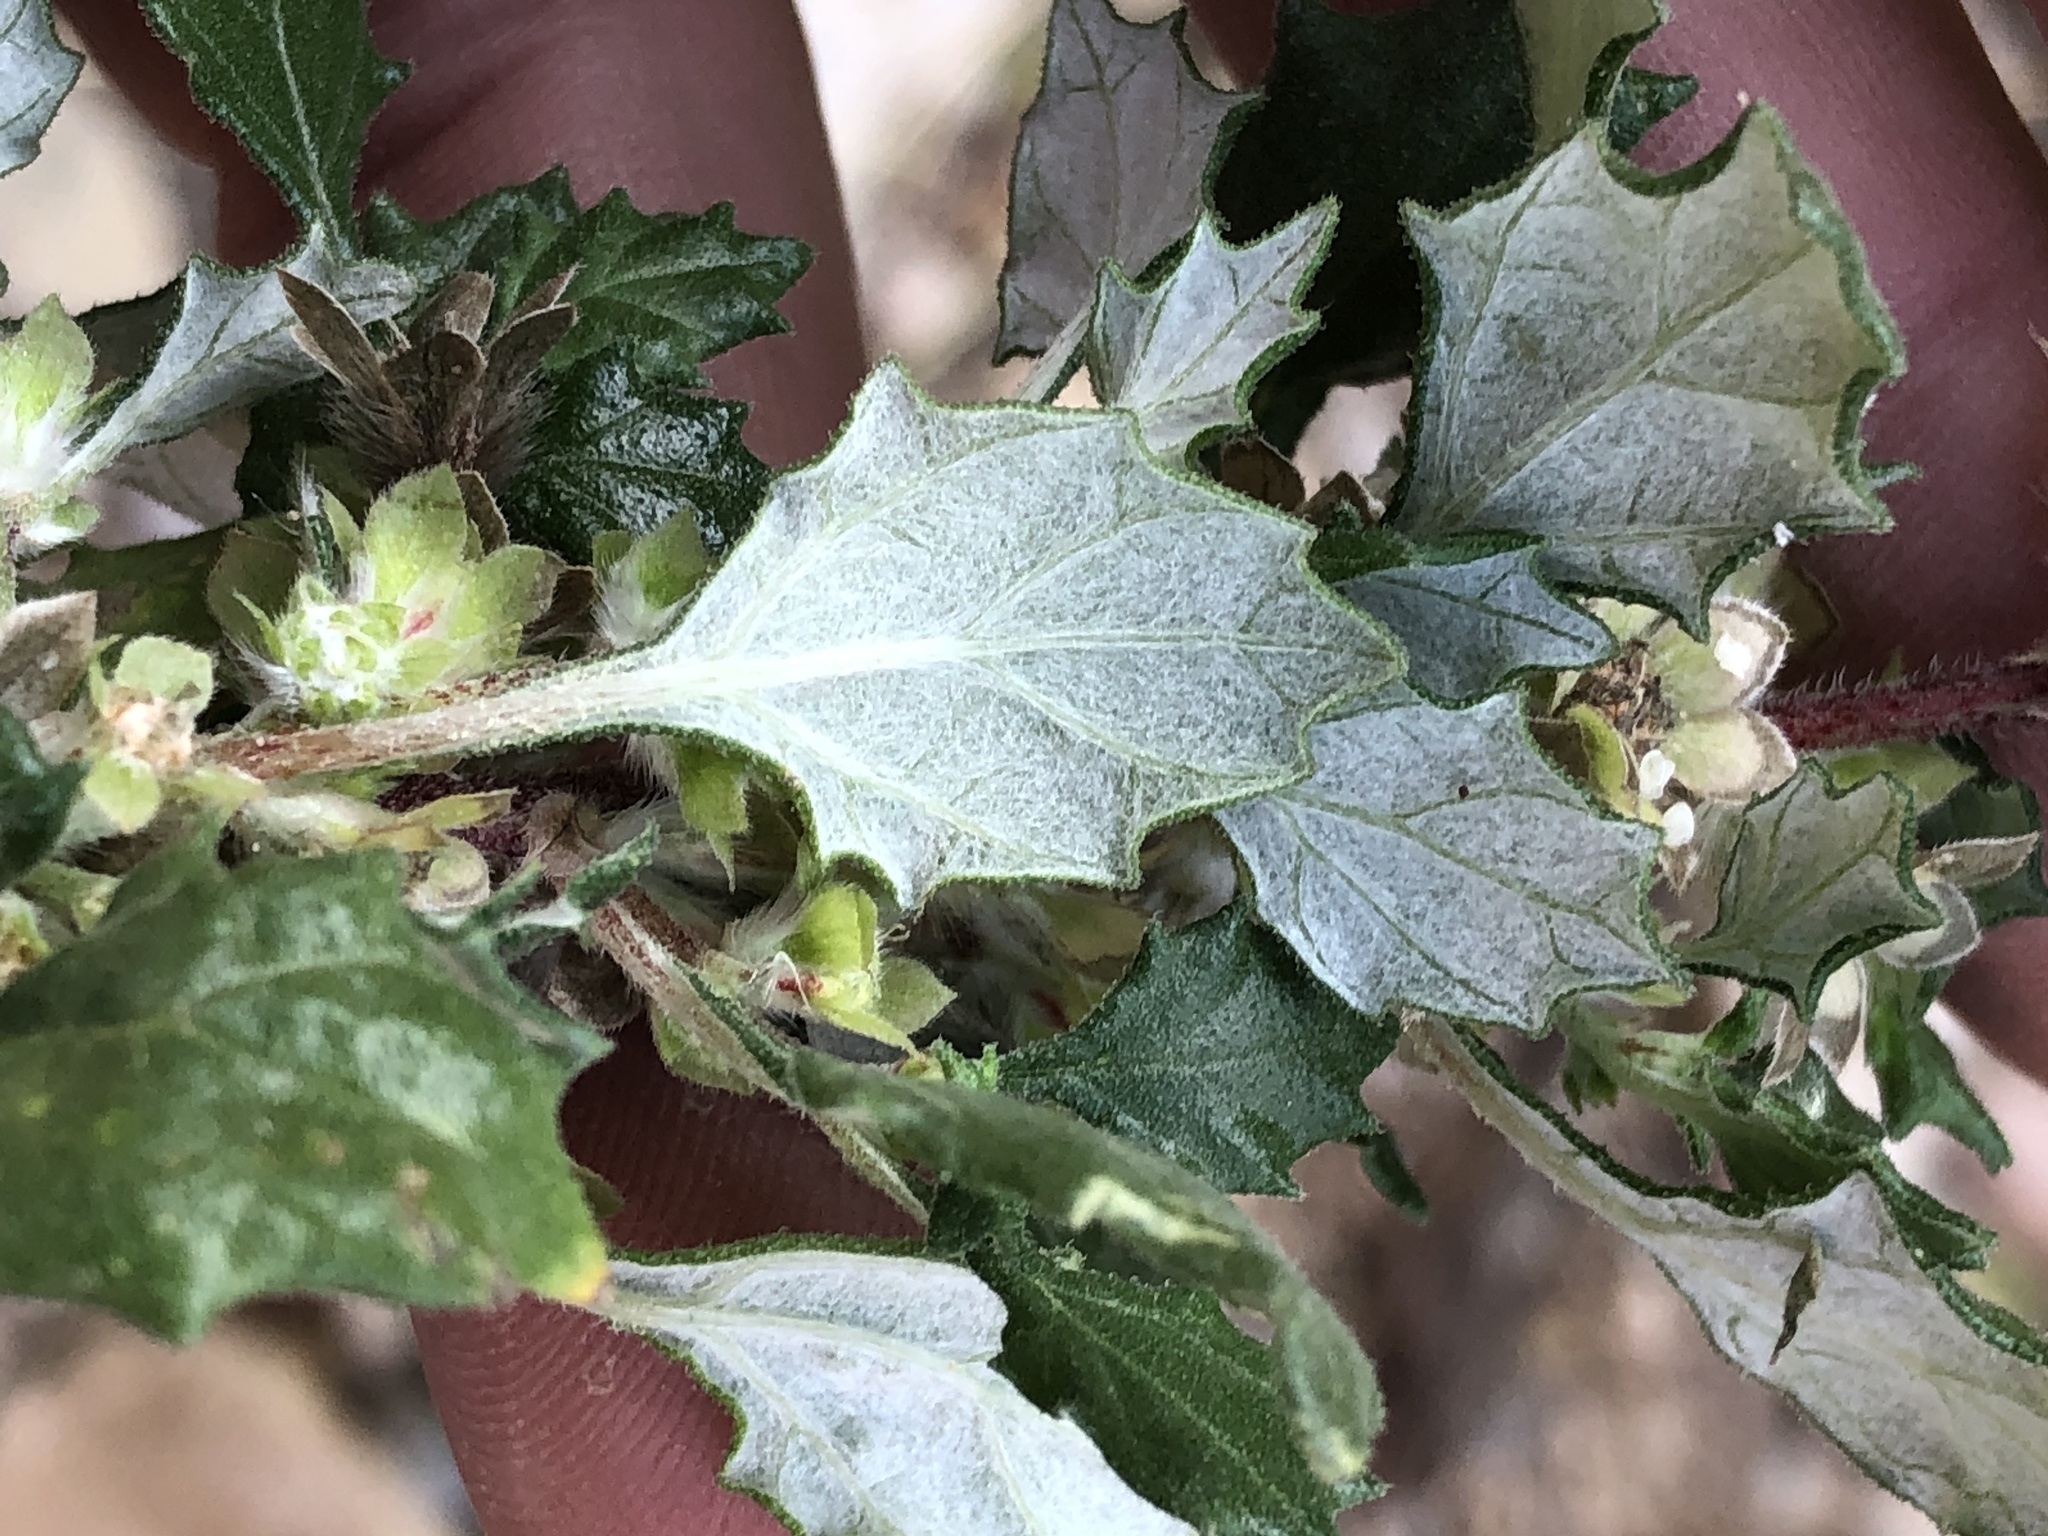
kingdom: Plantae
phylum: Tracheophyta
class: Magnoliopsida
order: Rosales
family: Urticaceae
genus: Forsskaolea
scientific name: Forsskaolea candida
